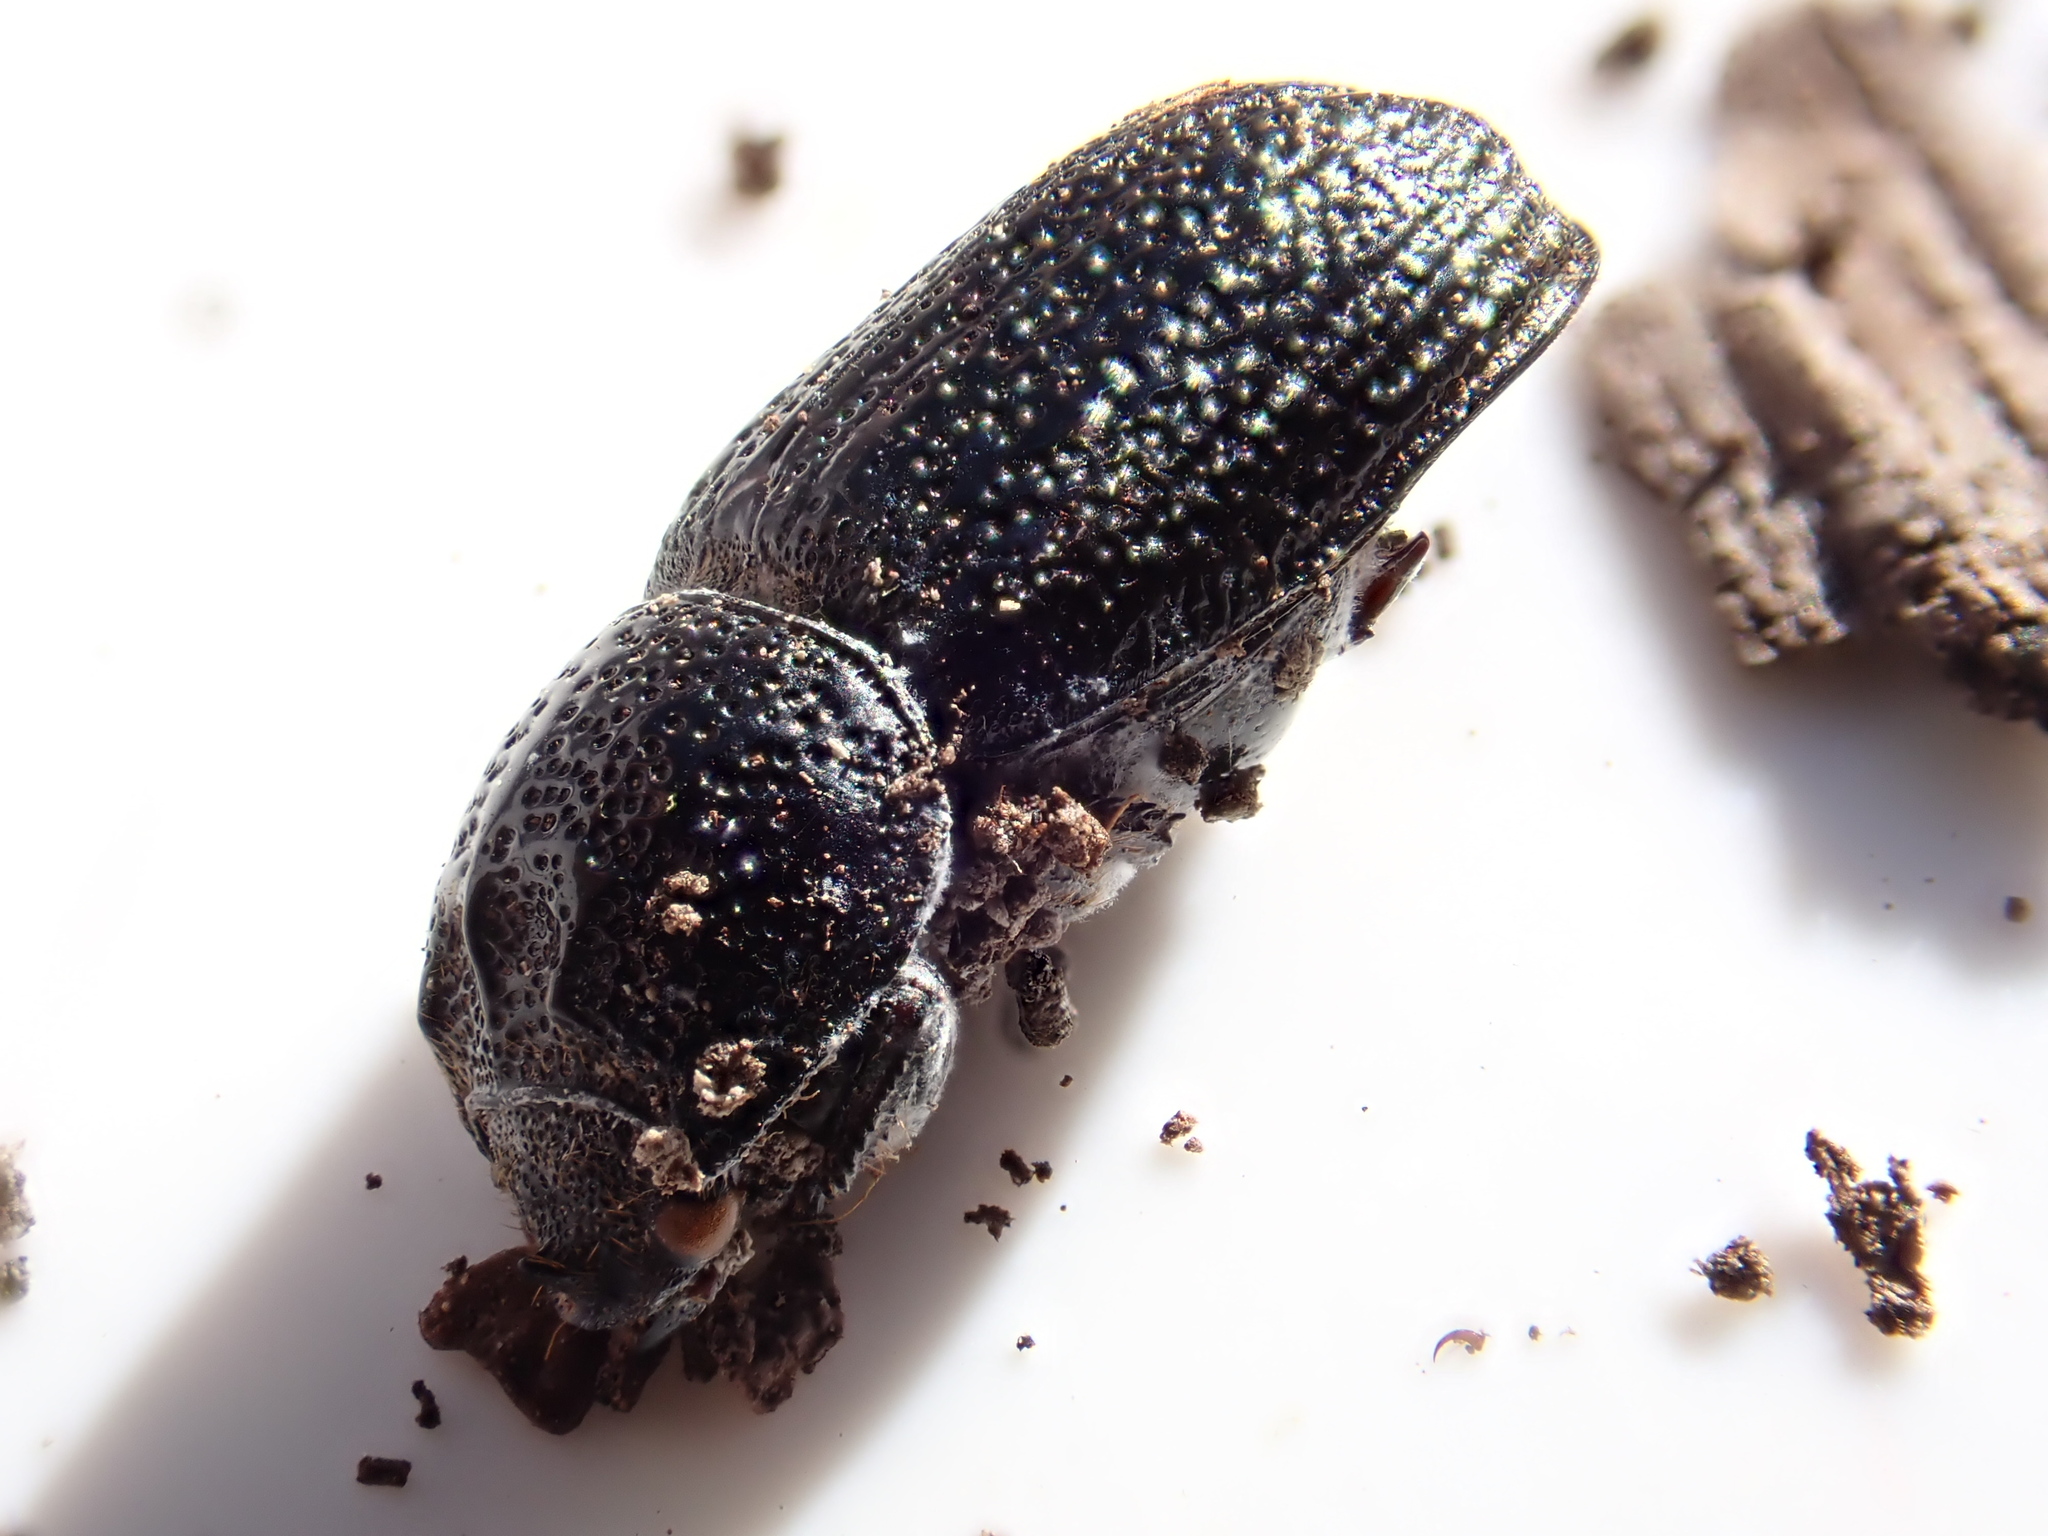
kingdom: Animalia
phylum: Arthropoda
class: Insecta
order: Coleoptera
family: Lucanidae
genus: Sinodendron
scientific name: Sinodendron cylindricum
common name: Rhinoceros beetle
